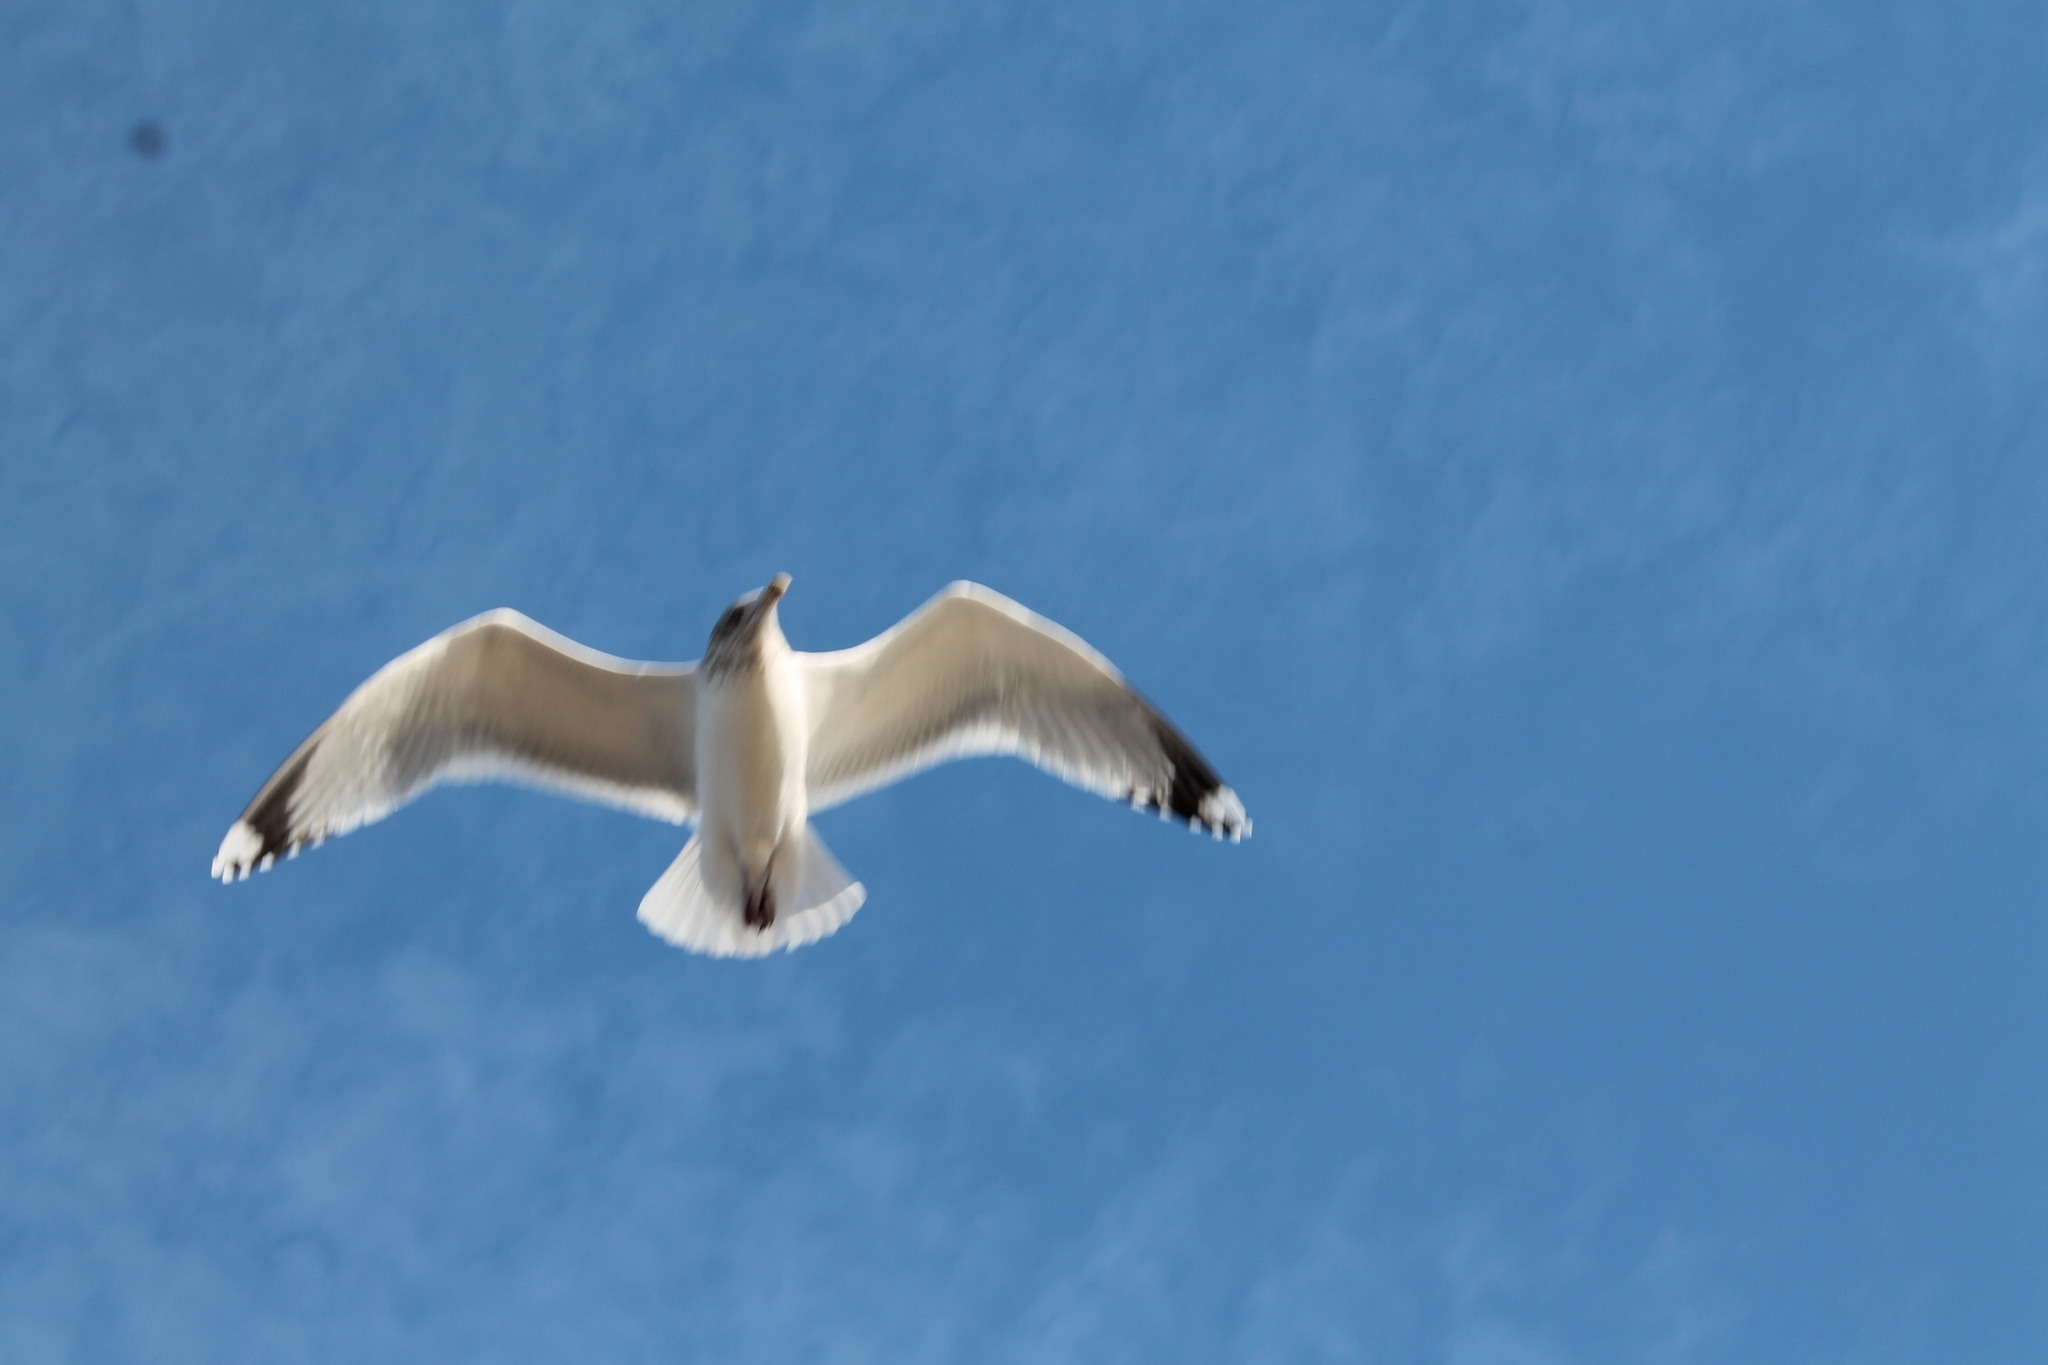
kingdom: Animalia
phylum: Chordata
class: Aves
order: Charadriiformes
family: Laridae
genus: Larus
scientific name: Larus argentatus
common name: Herring gull
